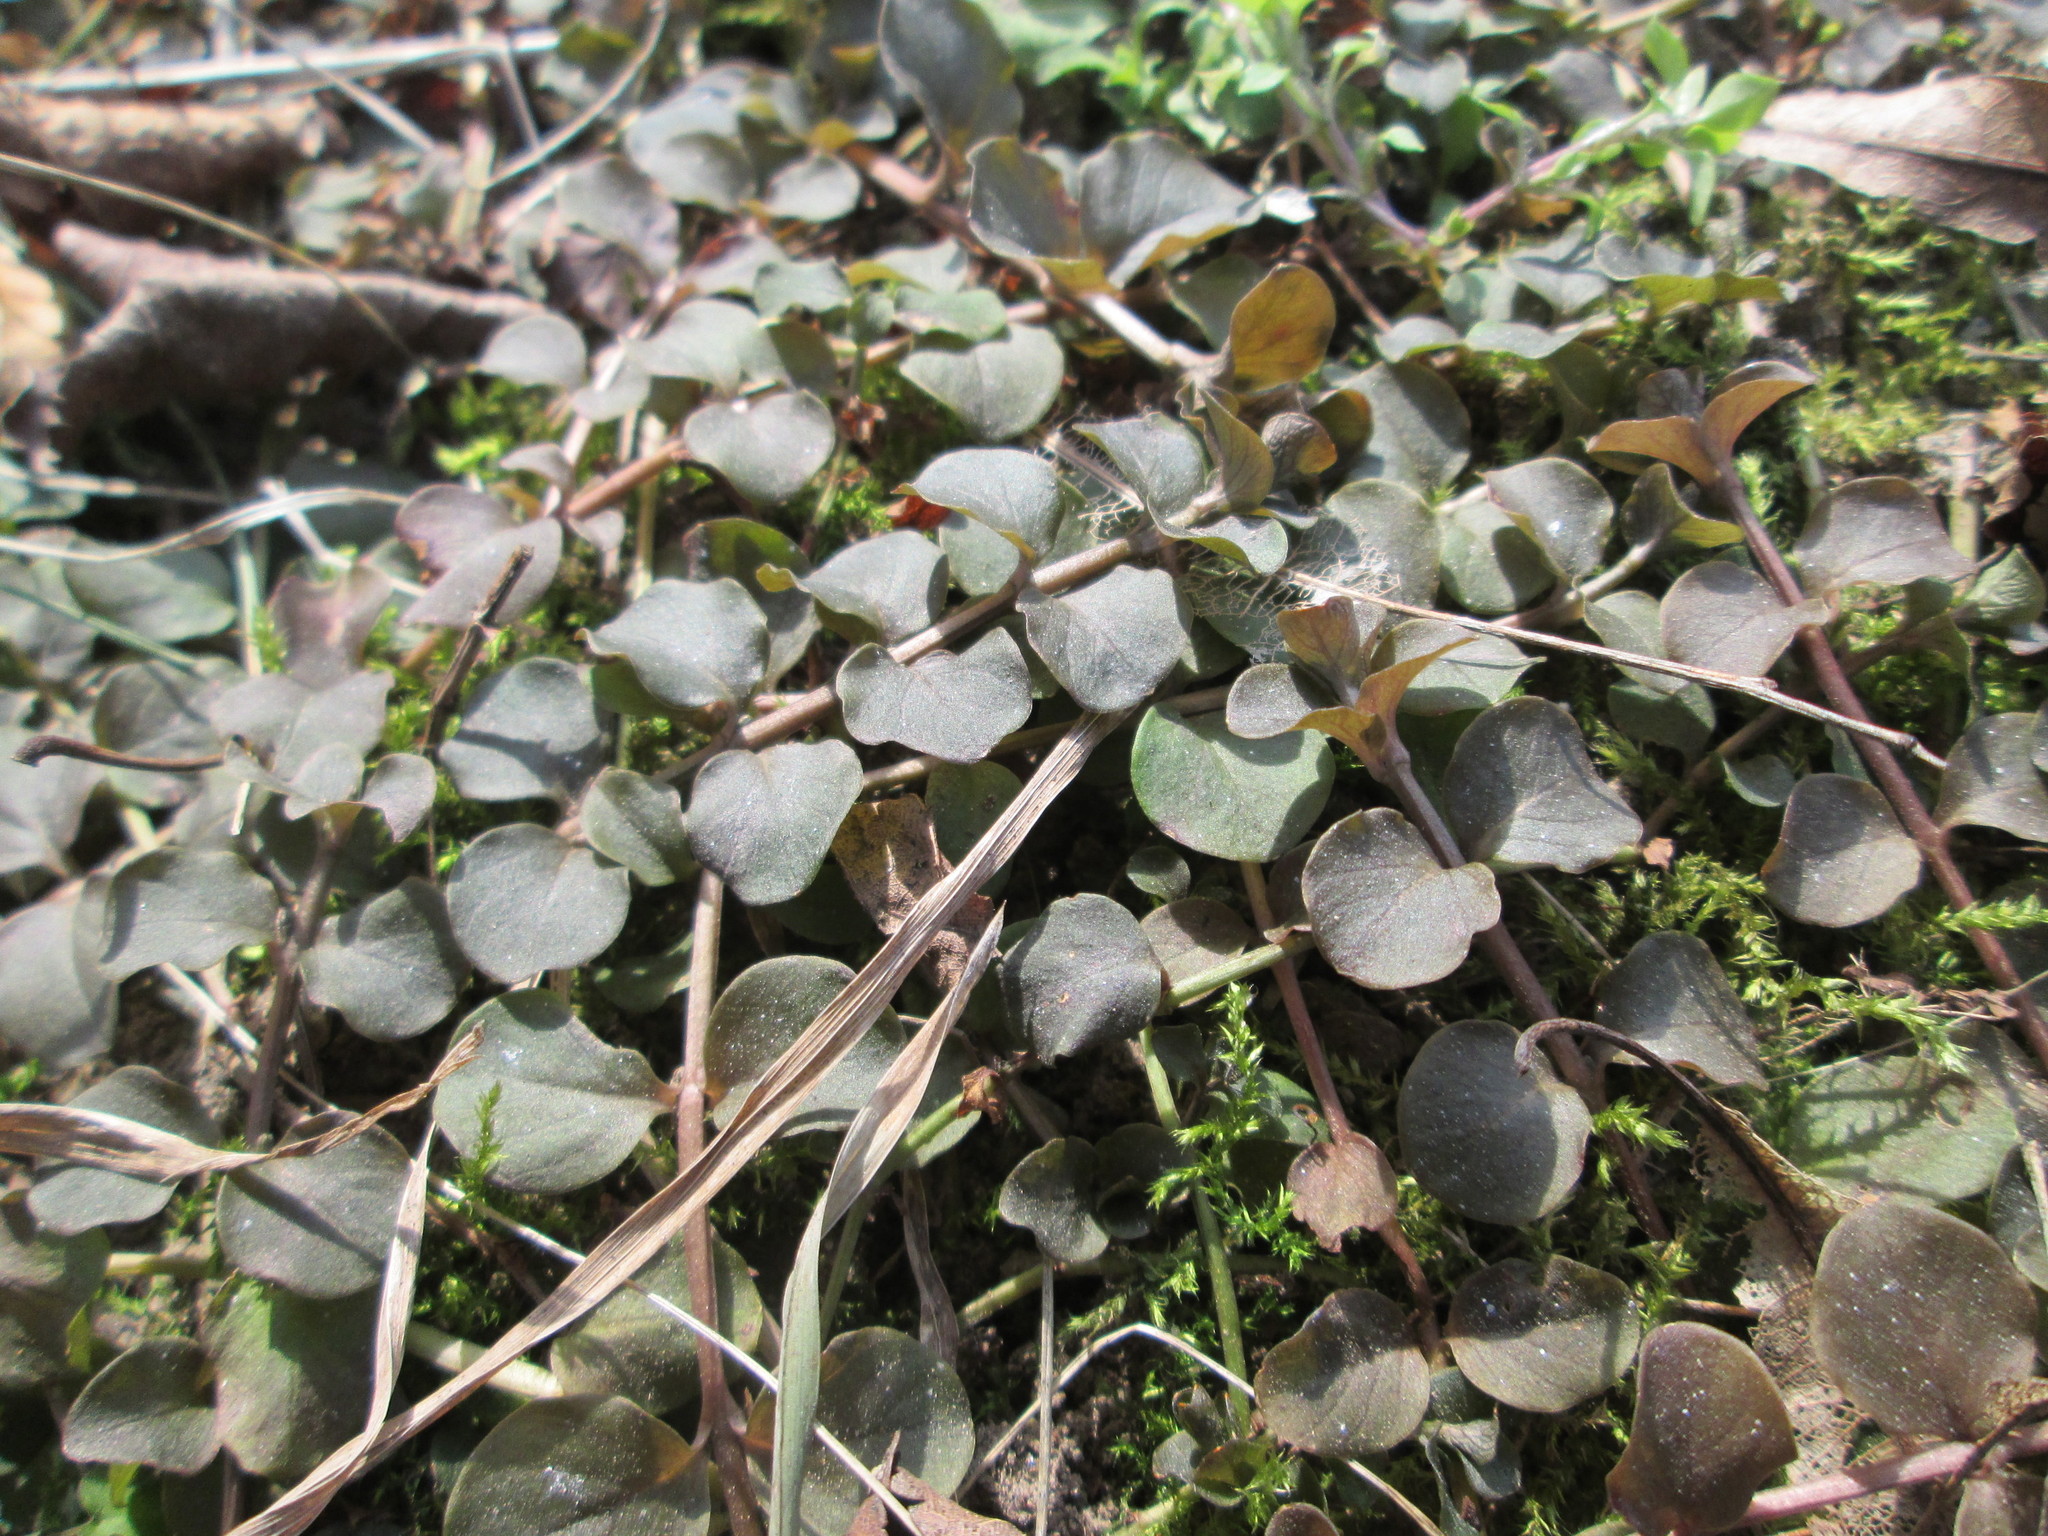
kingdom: Plantae
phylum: Tracheophyta
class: Magnoliopsida
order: Ericales
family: Primulaceae
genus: Lysimachia
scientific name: Lysimachia nummularia
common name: Moneywort
